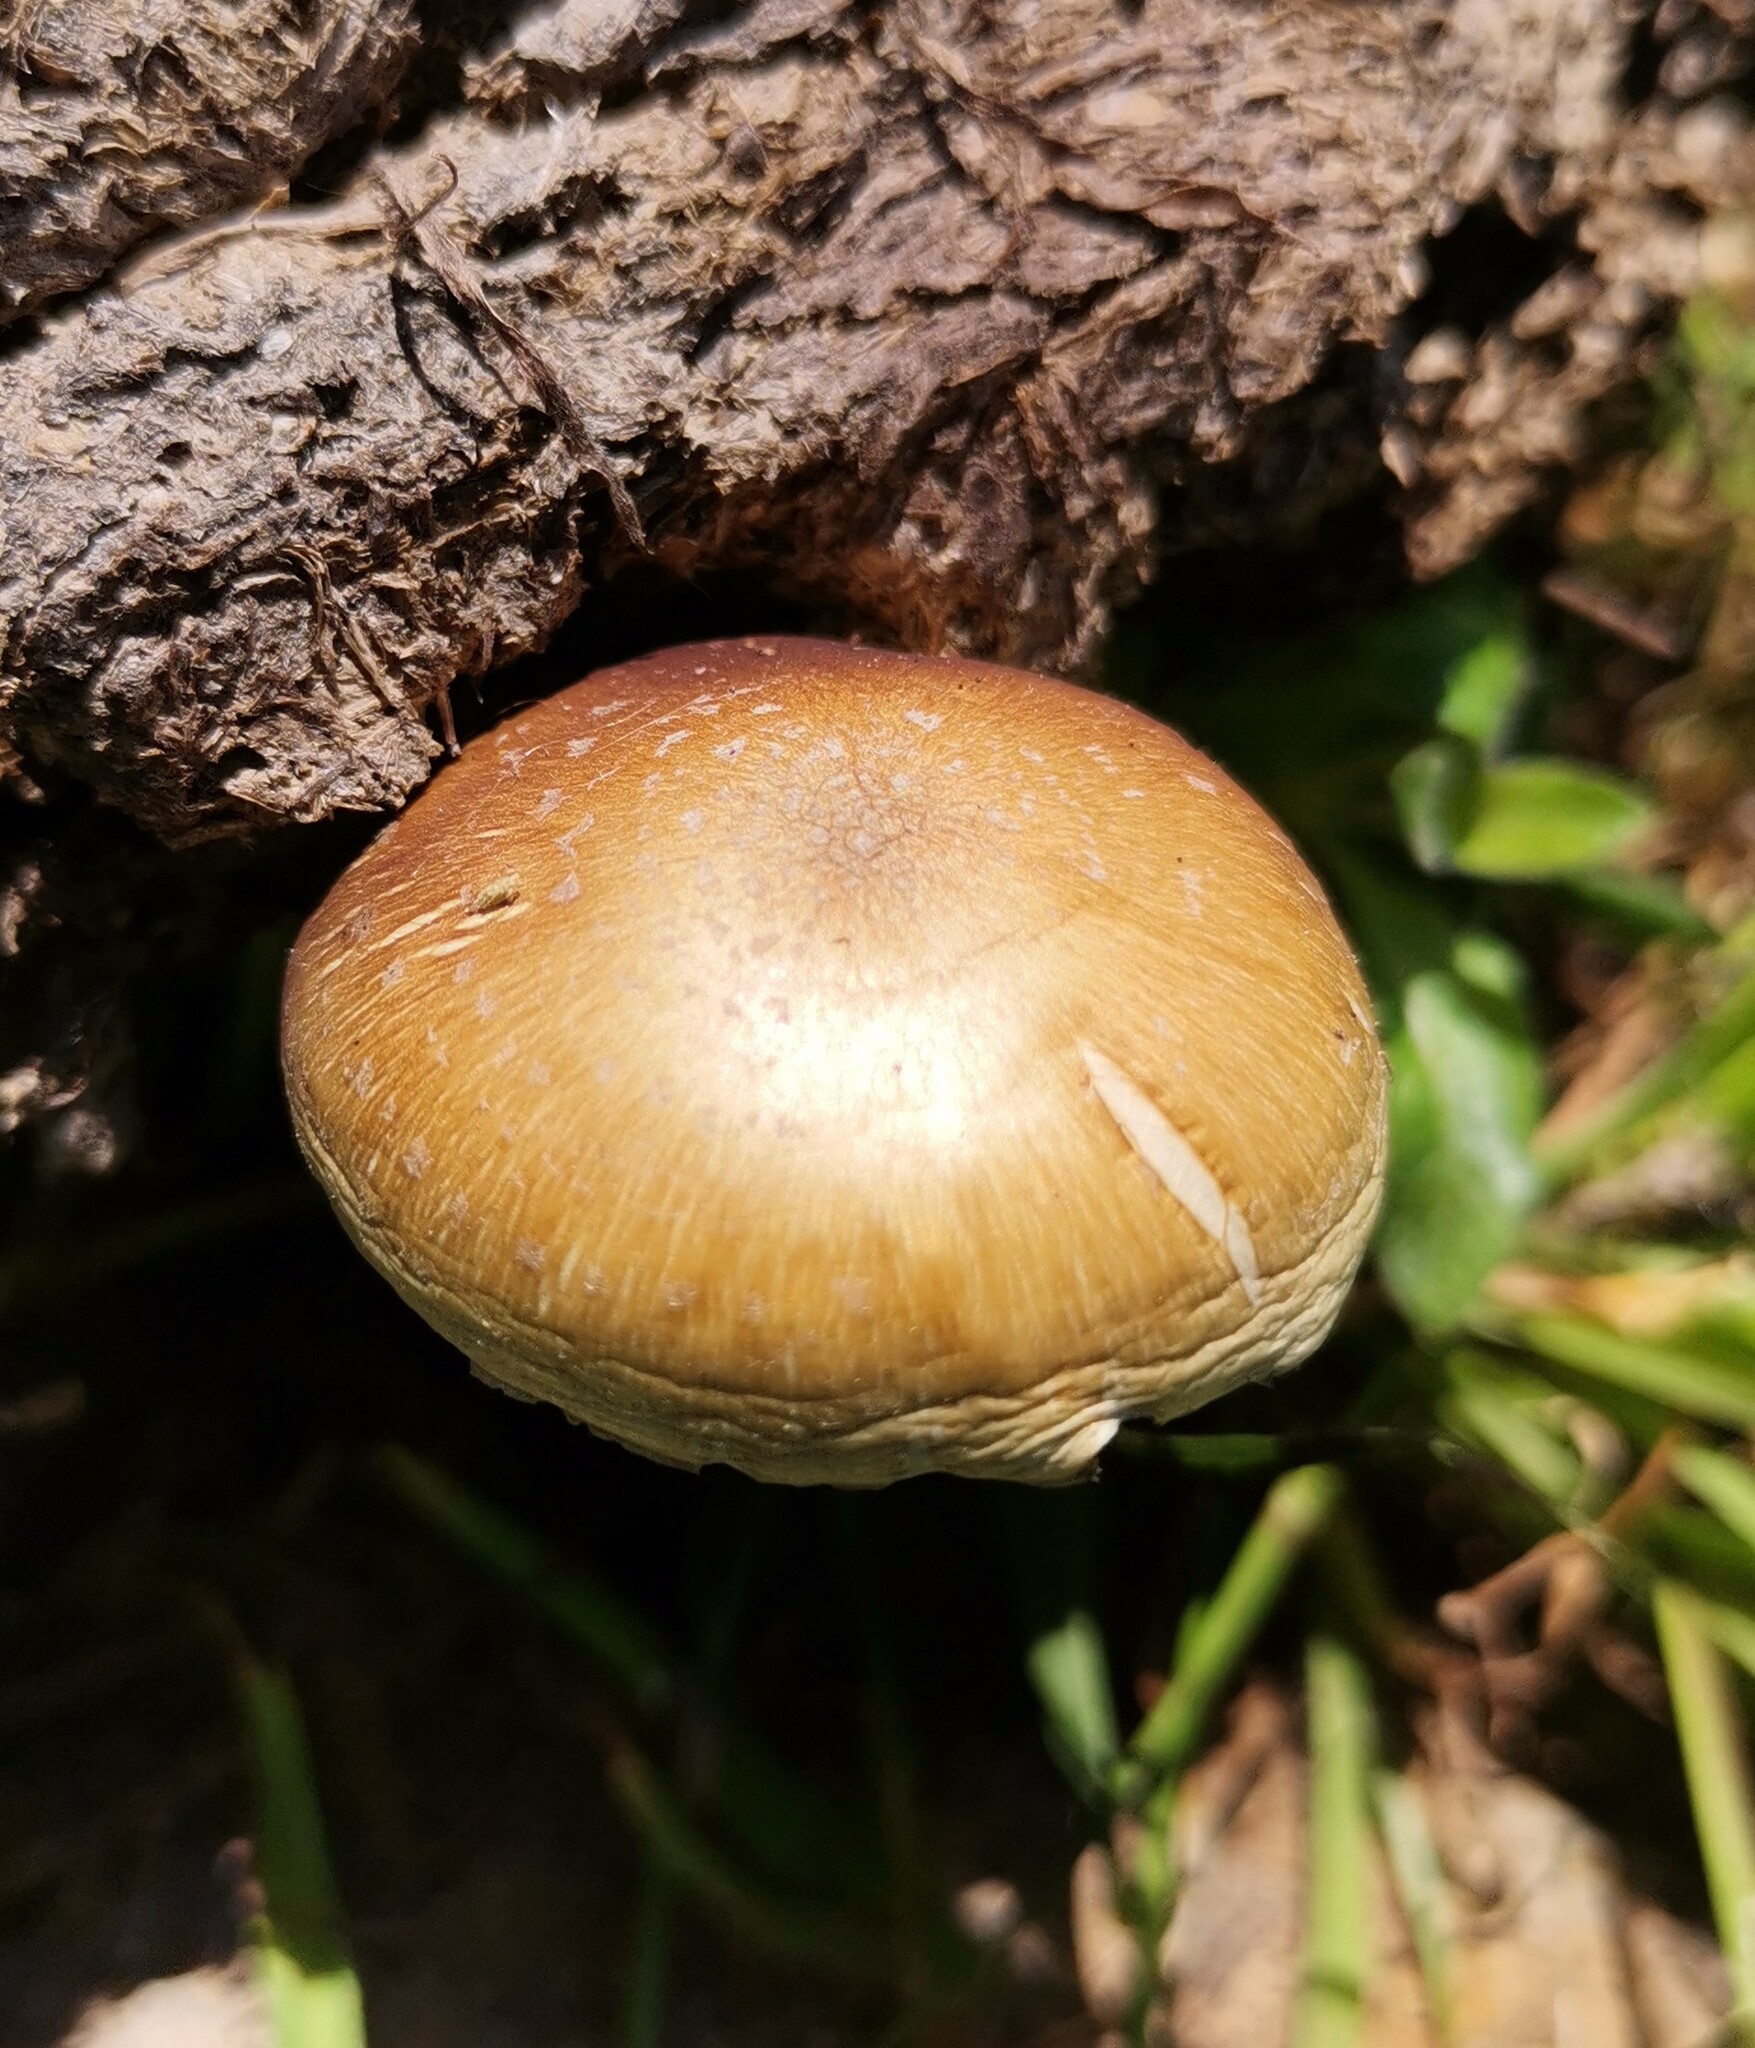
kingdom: Fungi
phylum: Basidiomycota
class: Agaricomycetes
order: Agaricales
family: Hymenogastraceae
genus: Psilocybe
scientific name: Psilocybe cubensis
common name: Golden brownie
